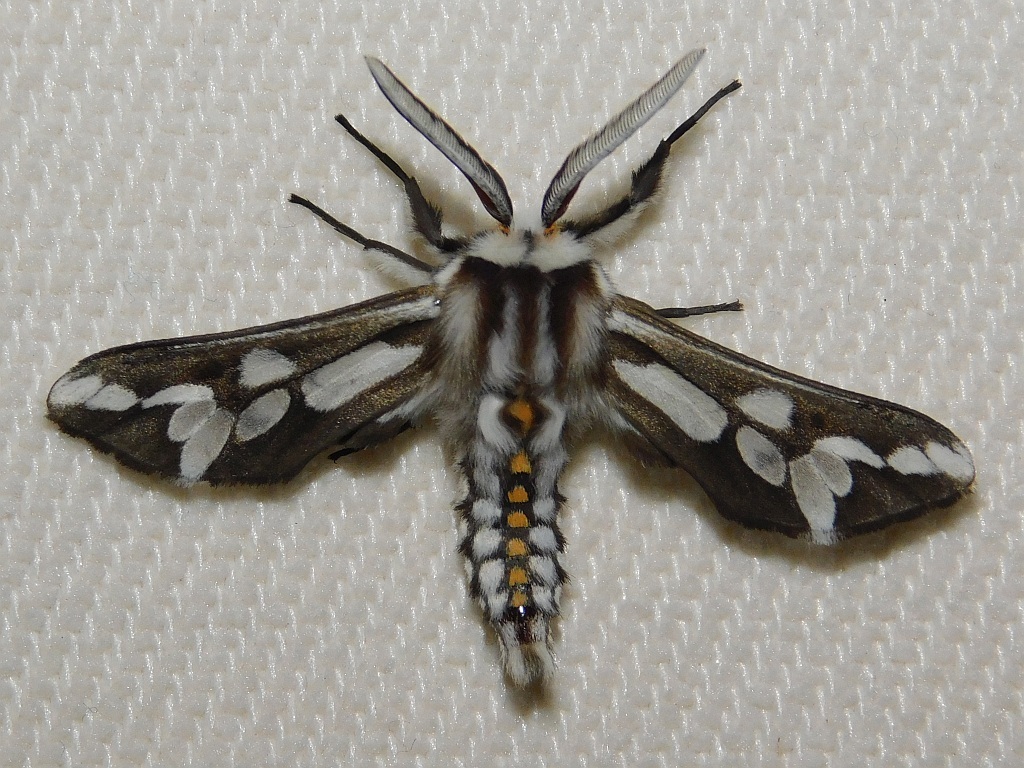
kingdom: Animalia
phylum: Arthropoda
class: Insecta
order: Lepidoptera
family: Erebidae
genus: Thyretes
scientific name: Thyretes hippotes
